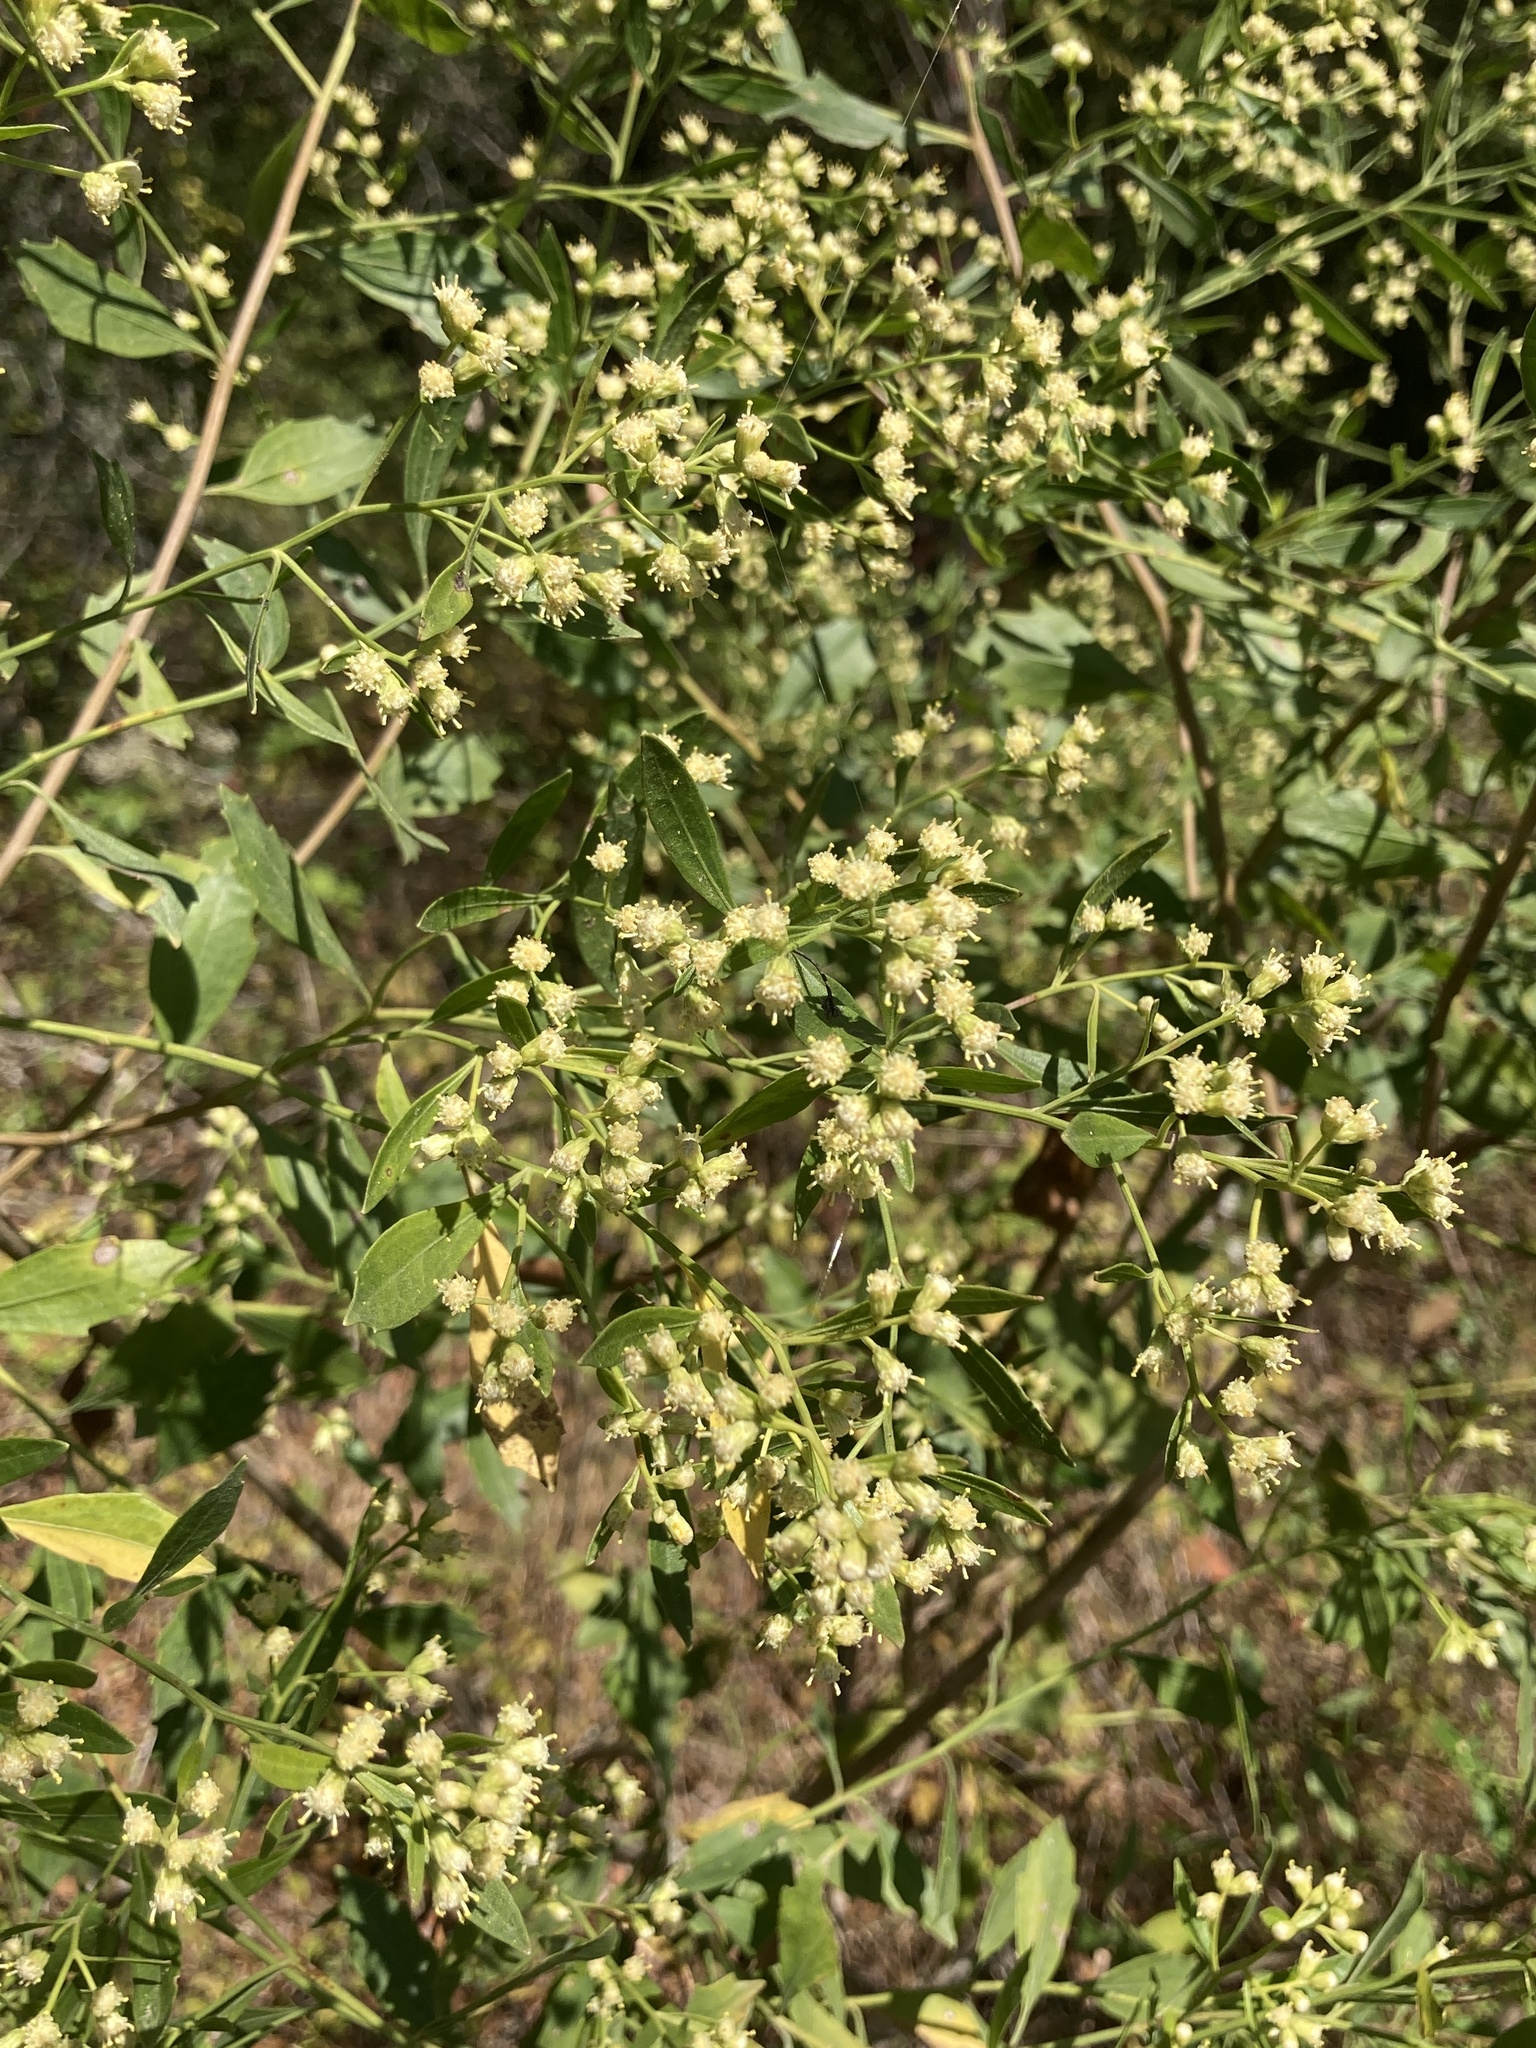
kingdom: Plantae
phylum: Tracheophyta
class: Magnoliopsida
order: Asterales
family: Asteraceae
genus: Baccharis
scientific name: Baccharis halimifolia
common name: Eastern baccharis
